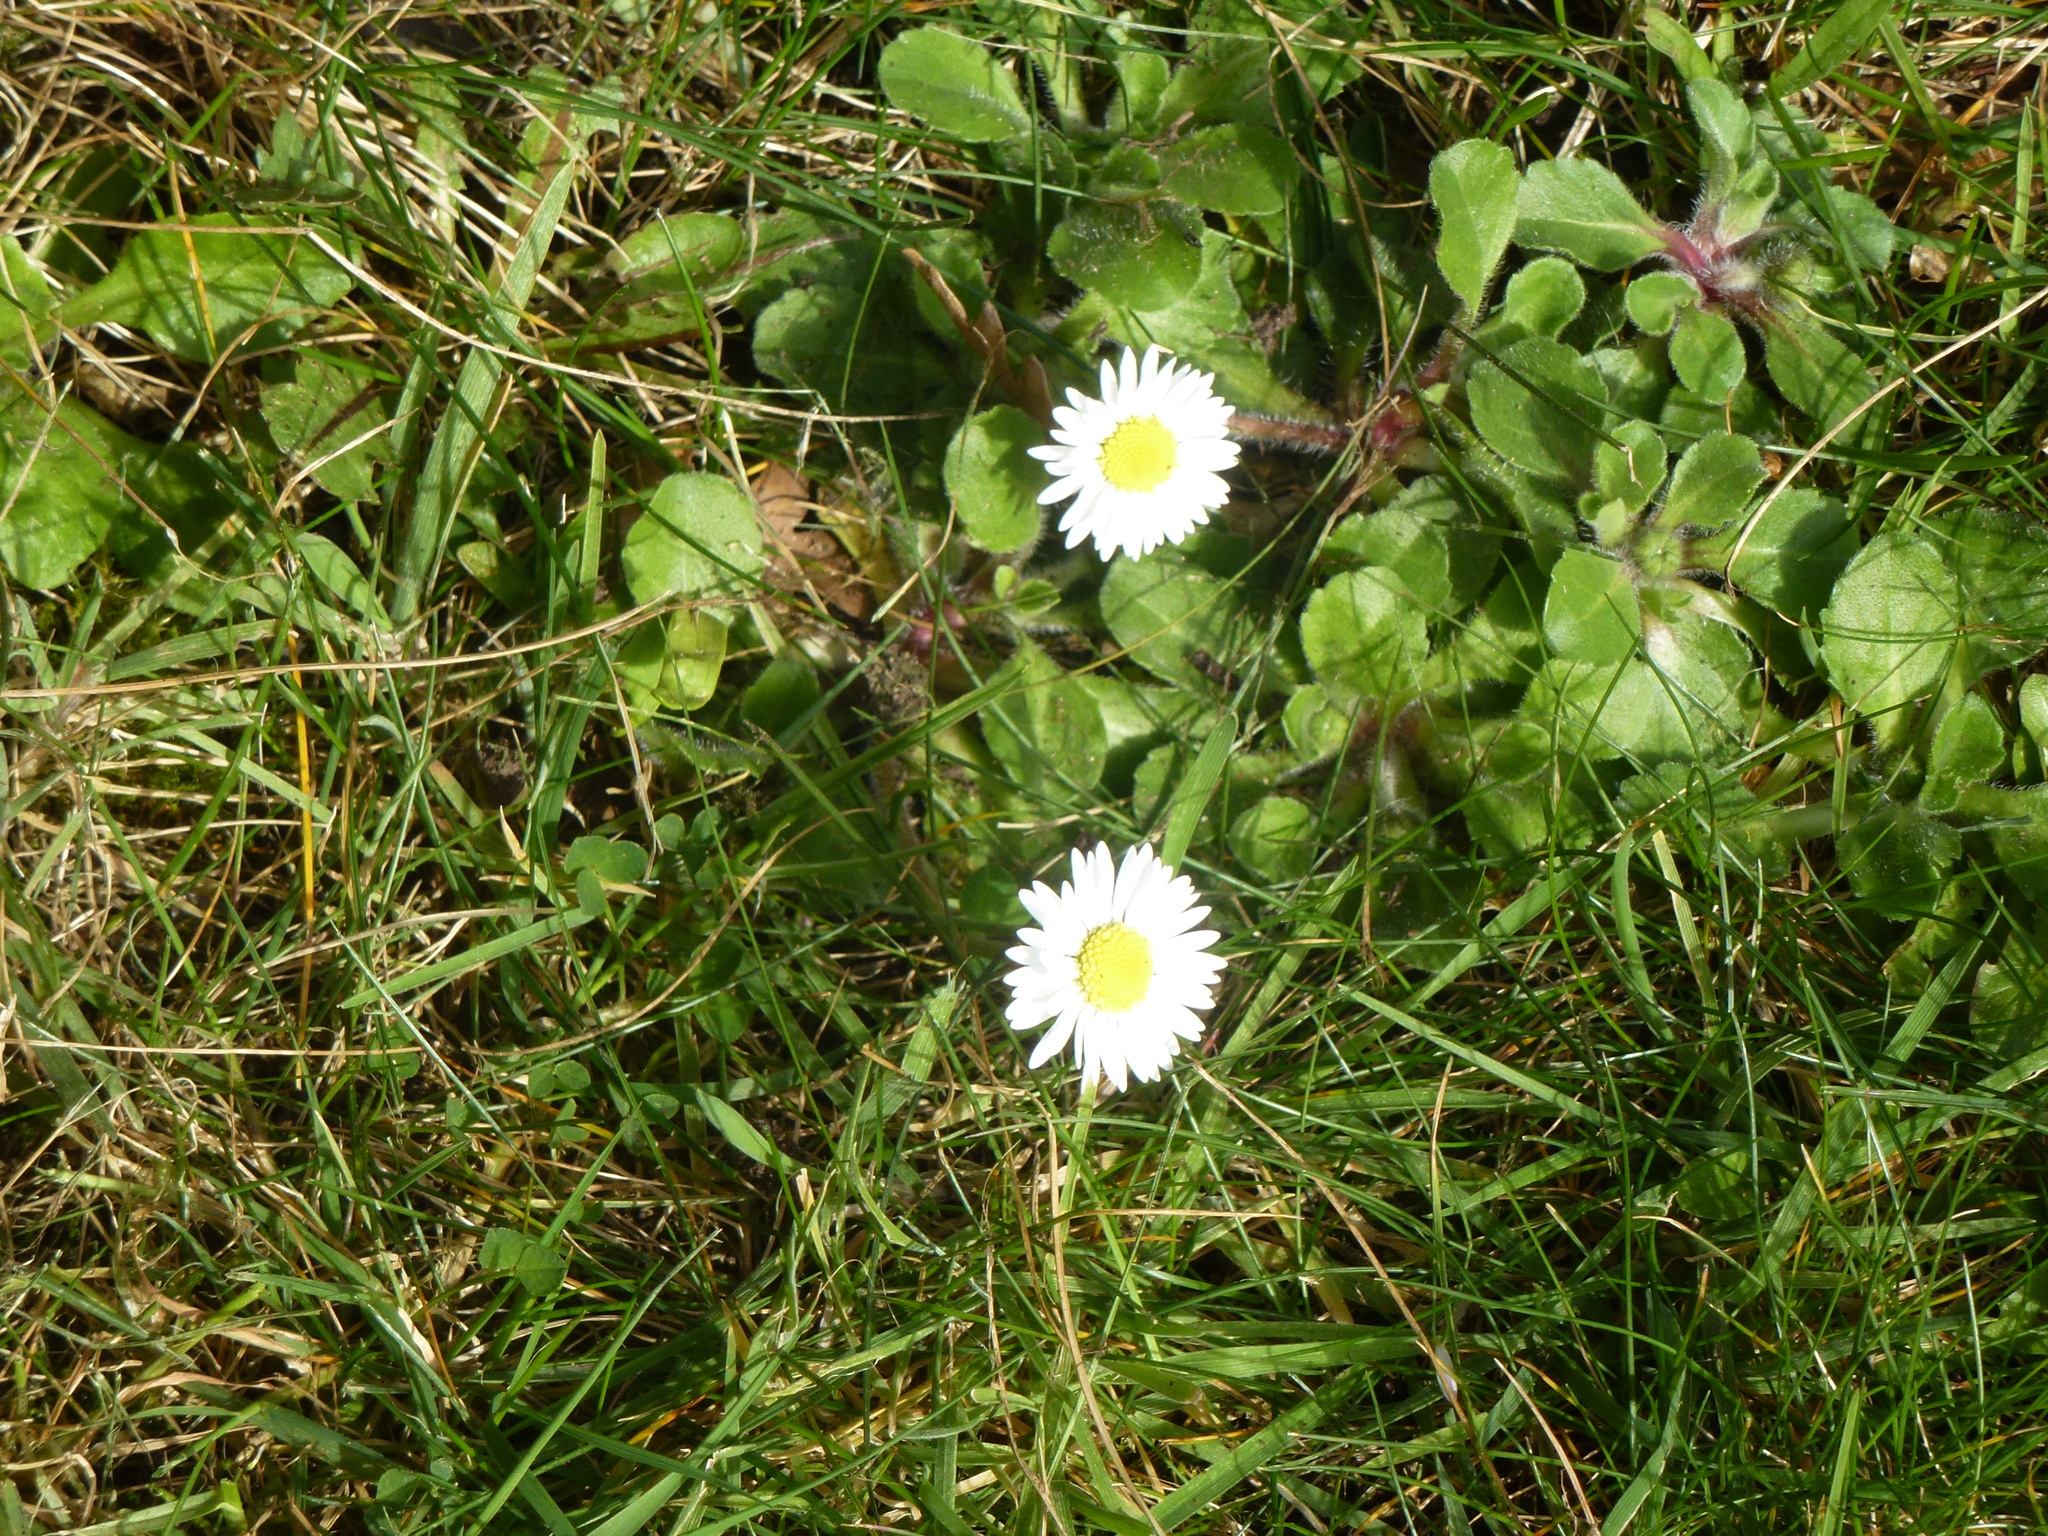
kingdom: Plantae
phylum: Tracheophyta
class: Magnoliopsida
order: Asterales
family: Asteraceae
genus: Bellis
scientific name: Bellis perennis
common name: Lawndaisy
